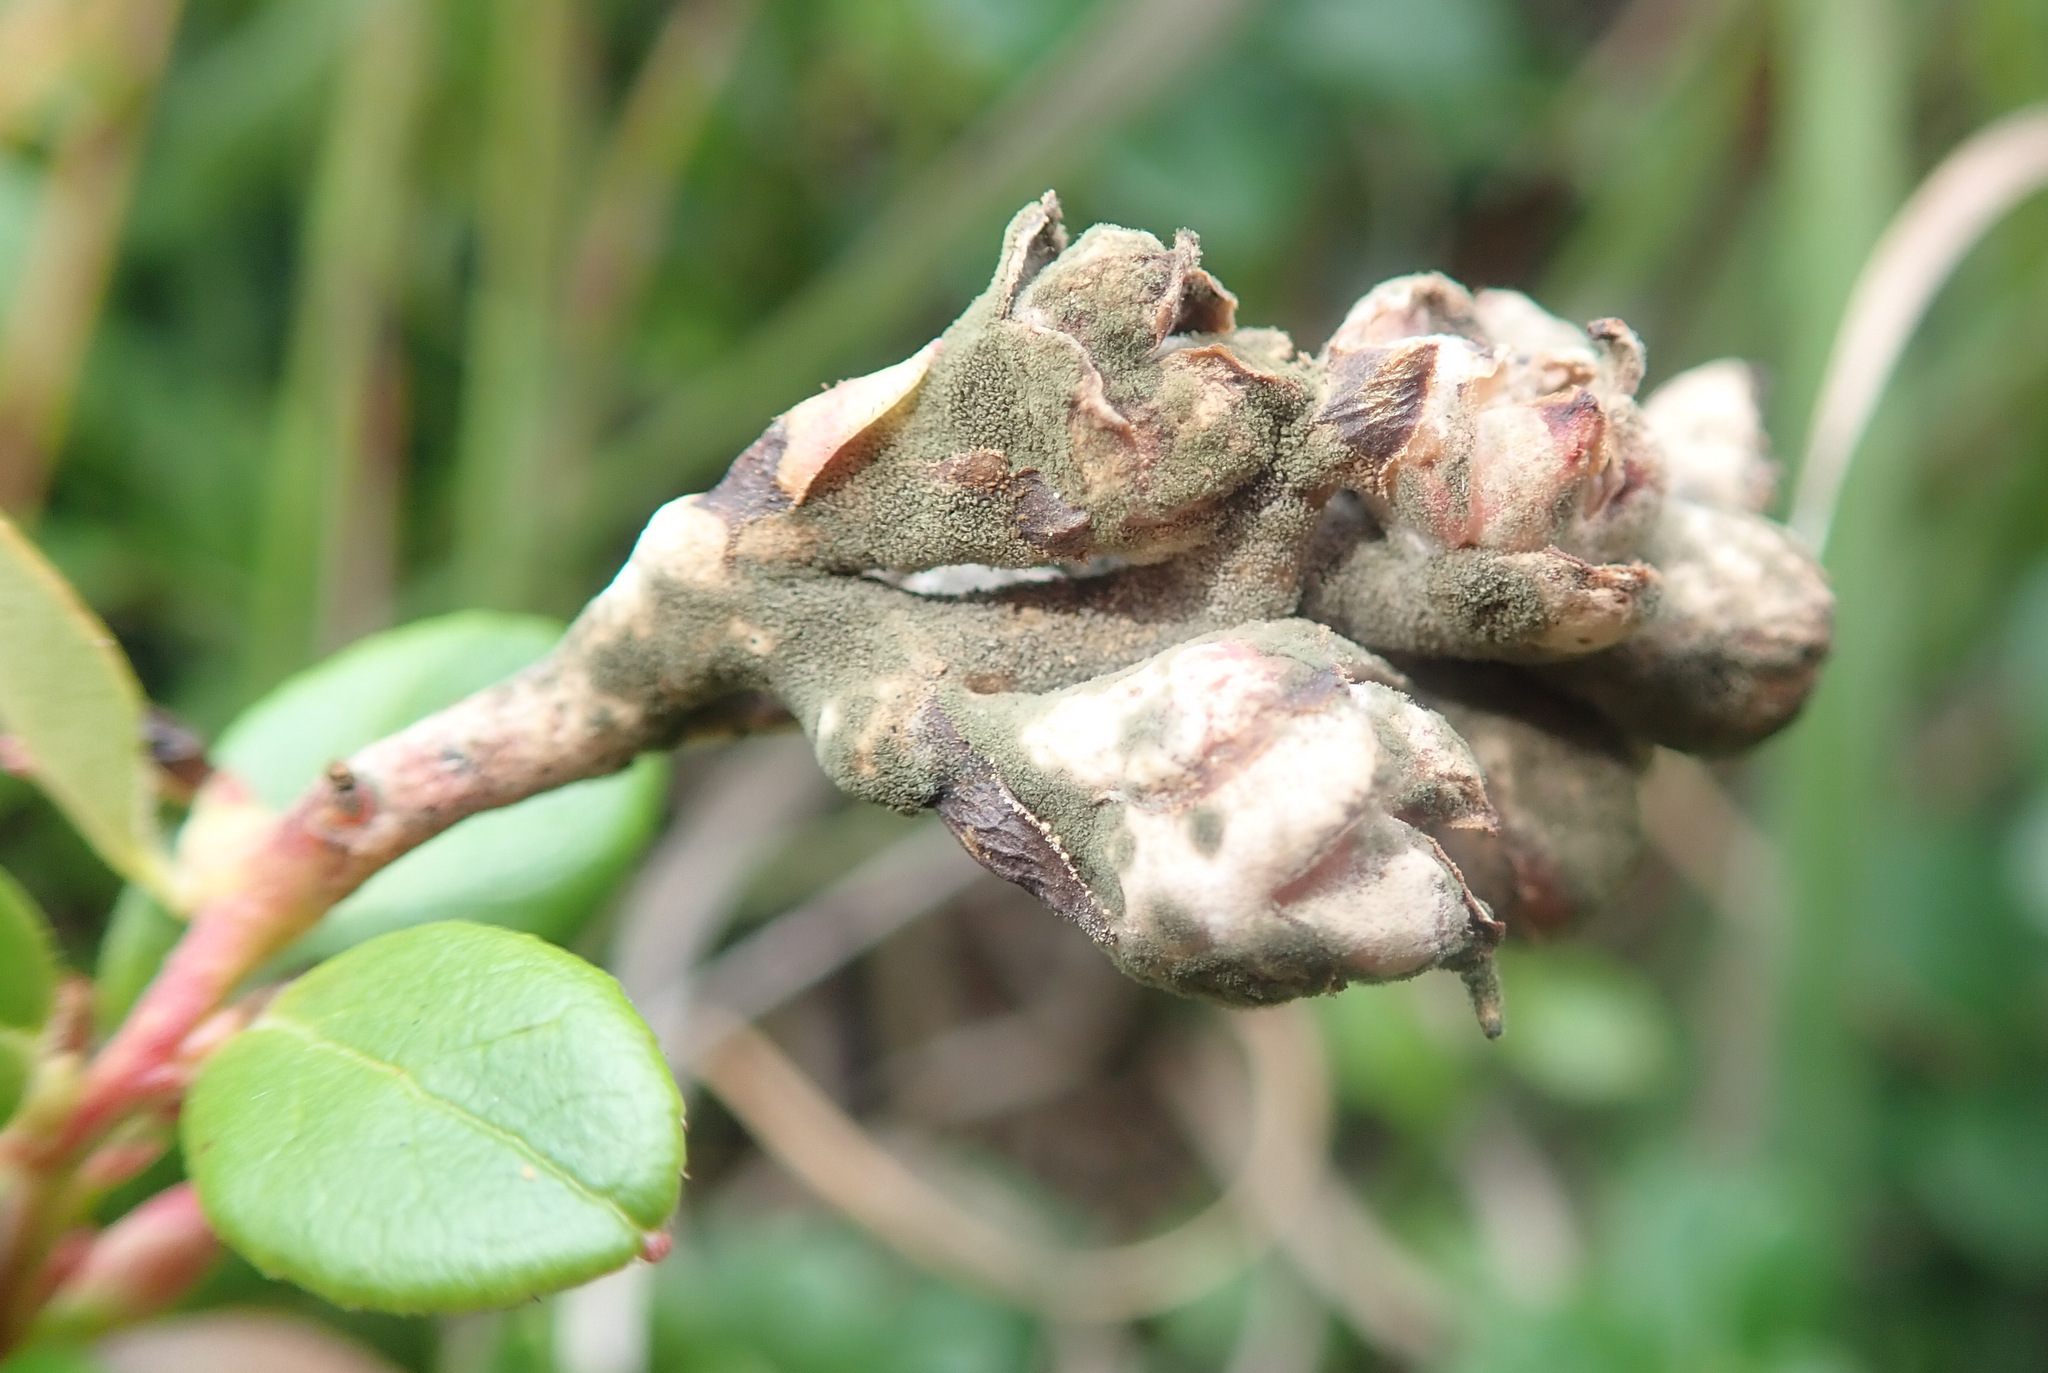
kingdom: Fungi
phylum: Basidiomycota
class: Exobasidiomycetes
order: Exobasidiales
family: Exobasidiaceae
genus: Exobasidium
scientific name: Exobasidium vaccinii
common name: Cowberry redleaf
